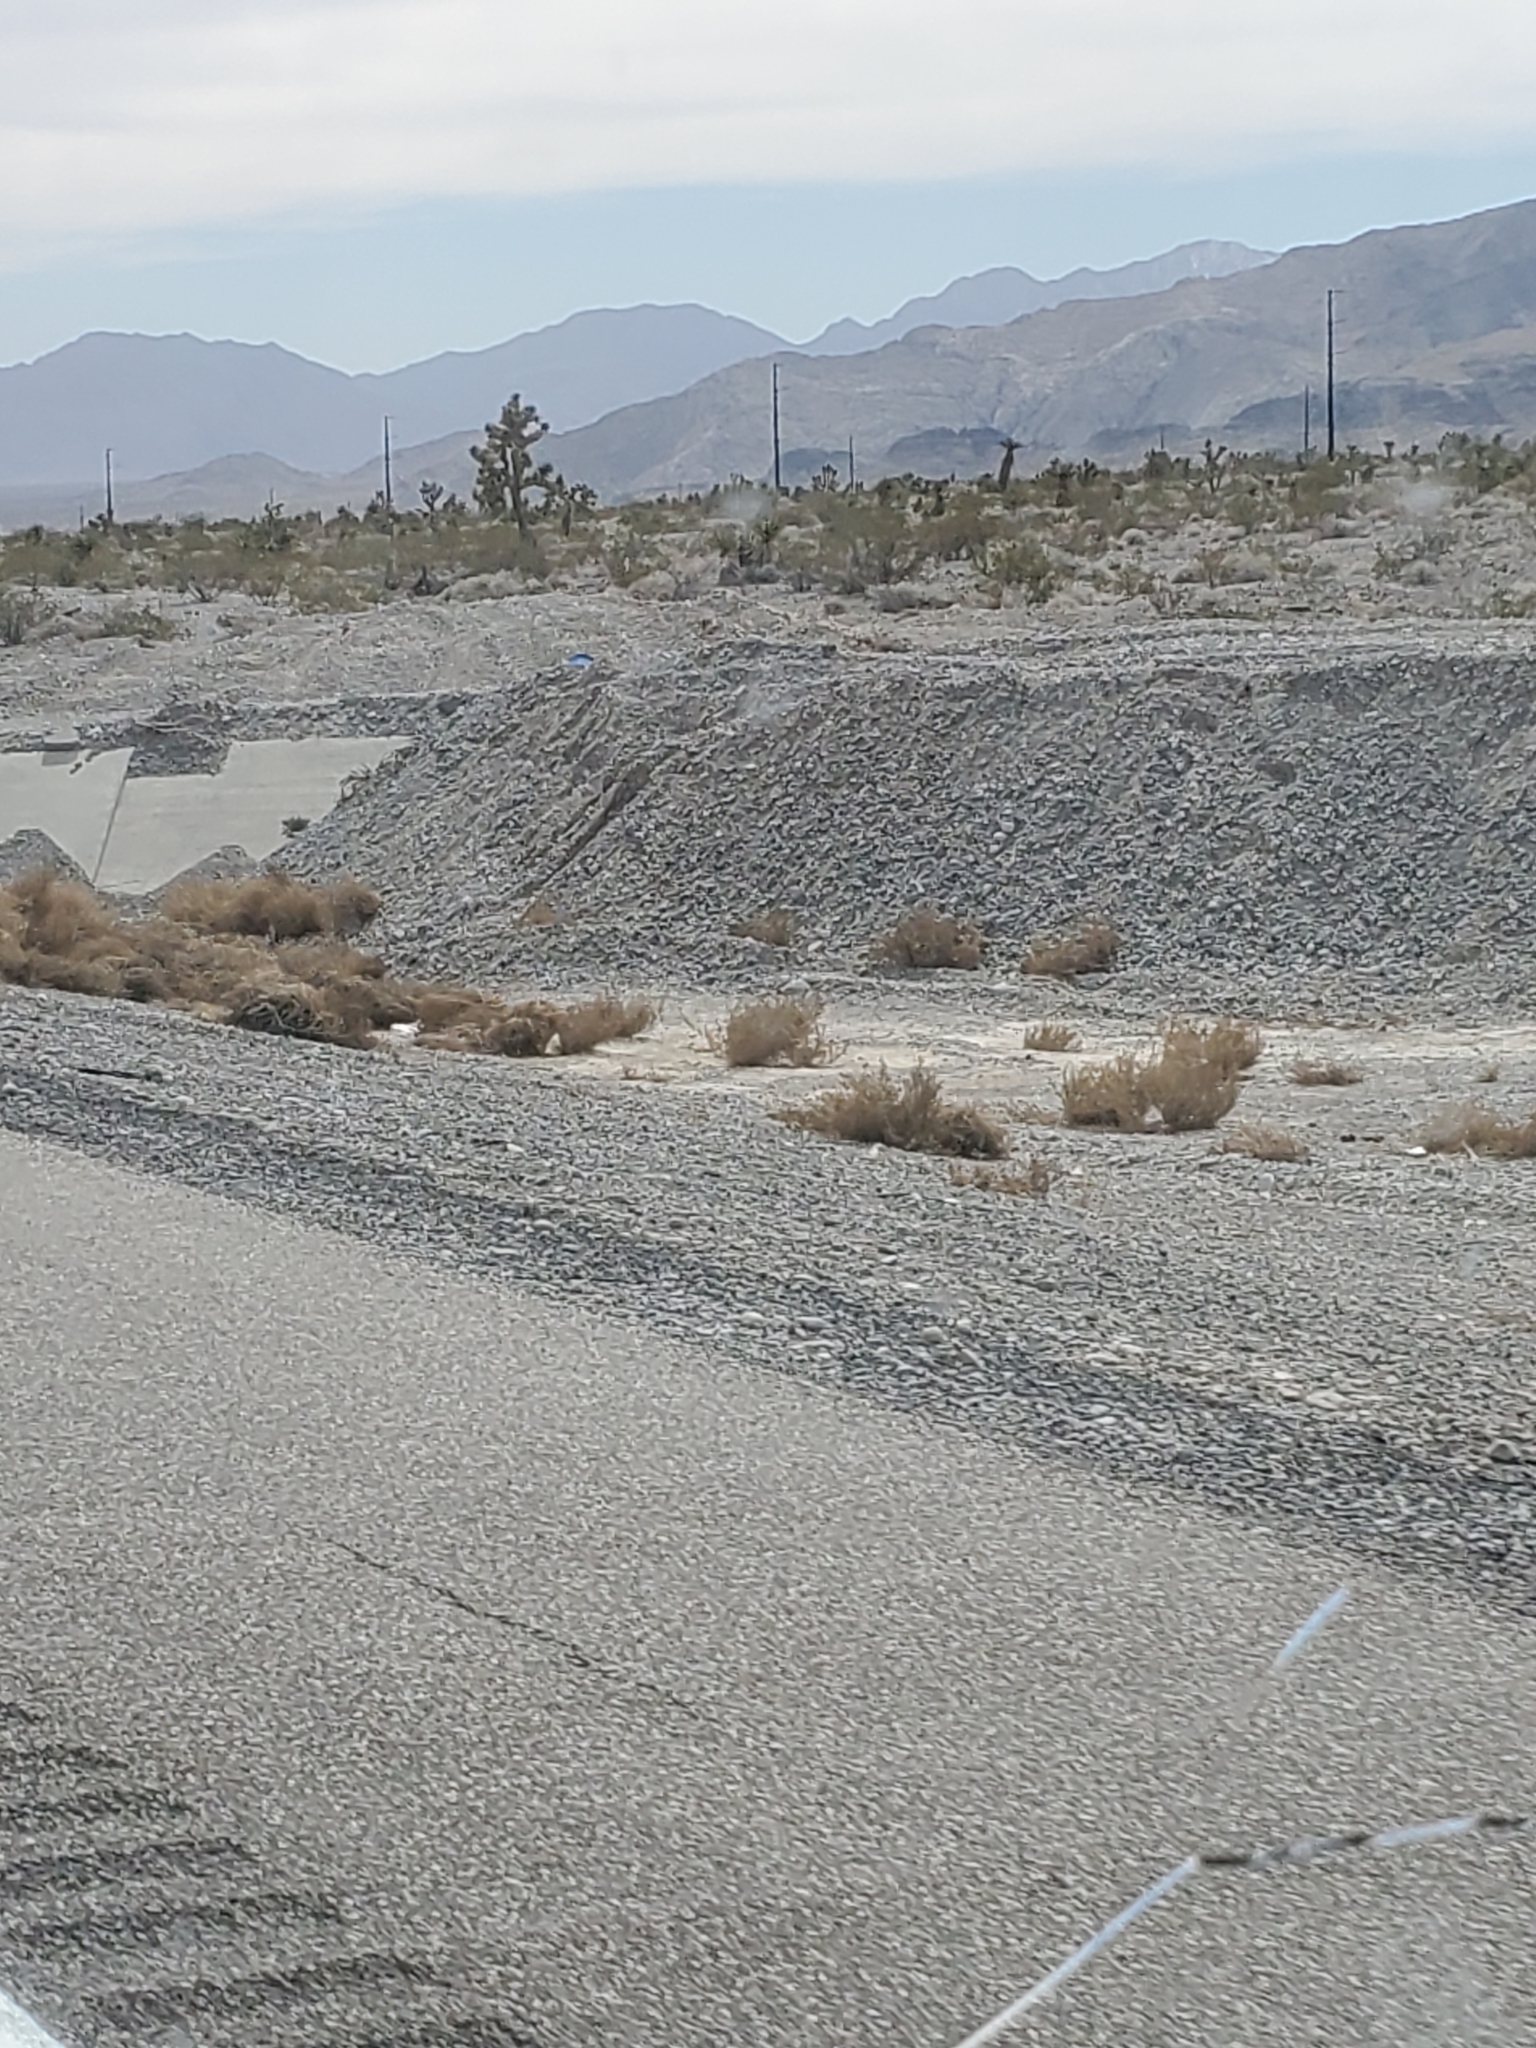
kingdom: Plantae
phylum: Tracheophyta
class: Liliopsida
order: Asparagales
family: Asparagaceae
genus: Yucca
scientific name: Yucca brevifolia
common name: Joshua tree
